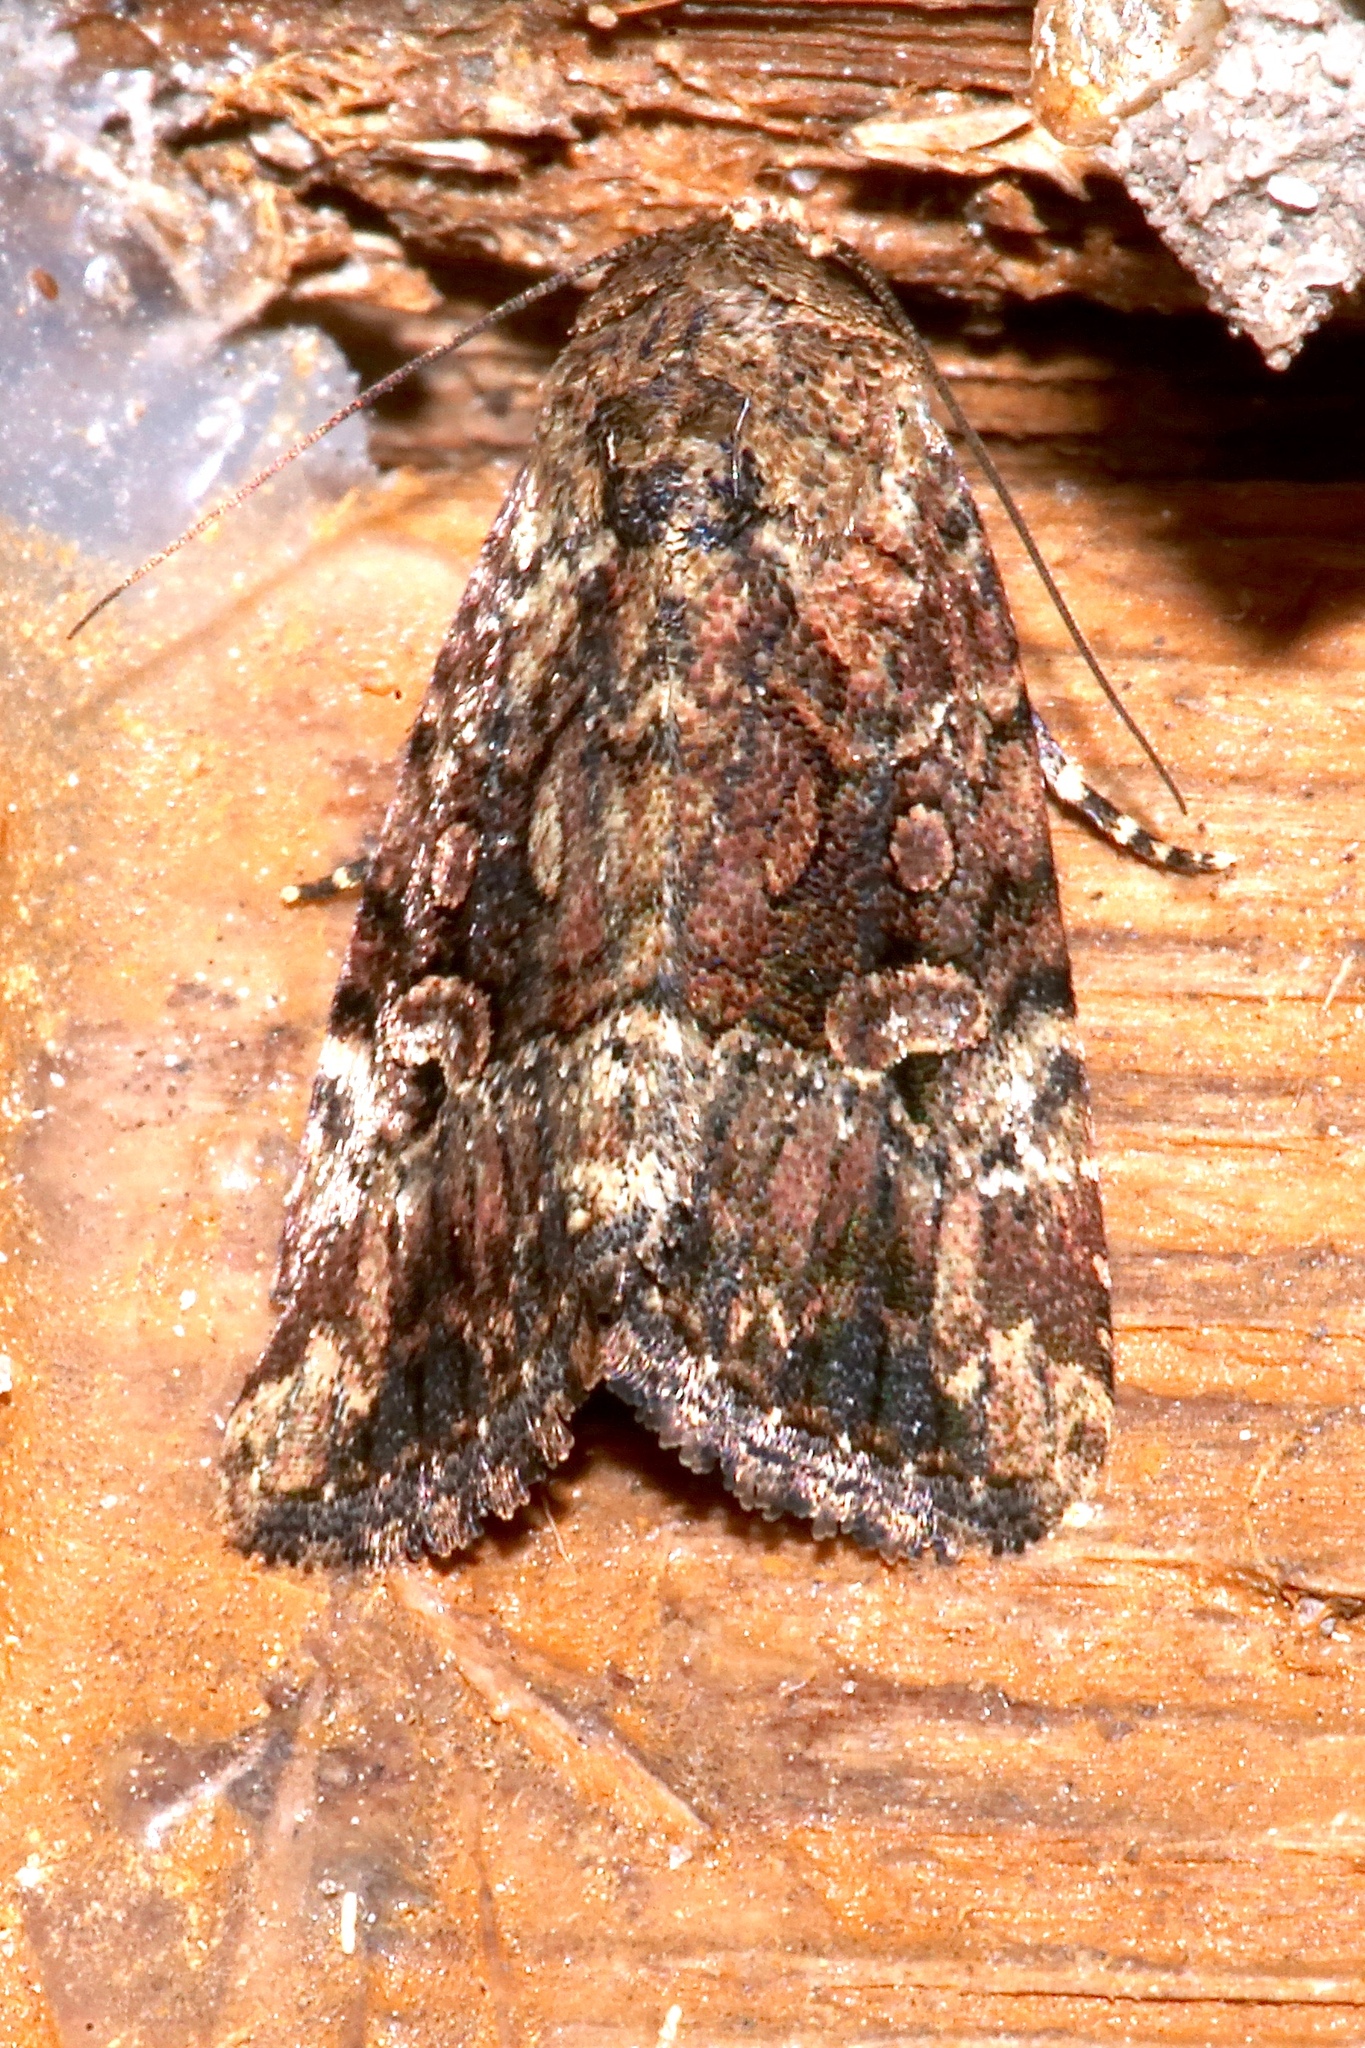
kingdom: Animalia
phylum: Arthropoda
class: Insecta
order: Lepidoptera
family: Noctuidae
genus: Elaphria
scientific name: Elaphria exesa
